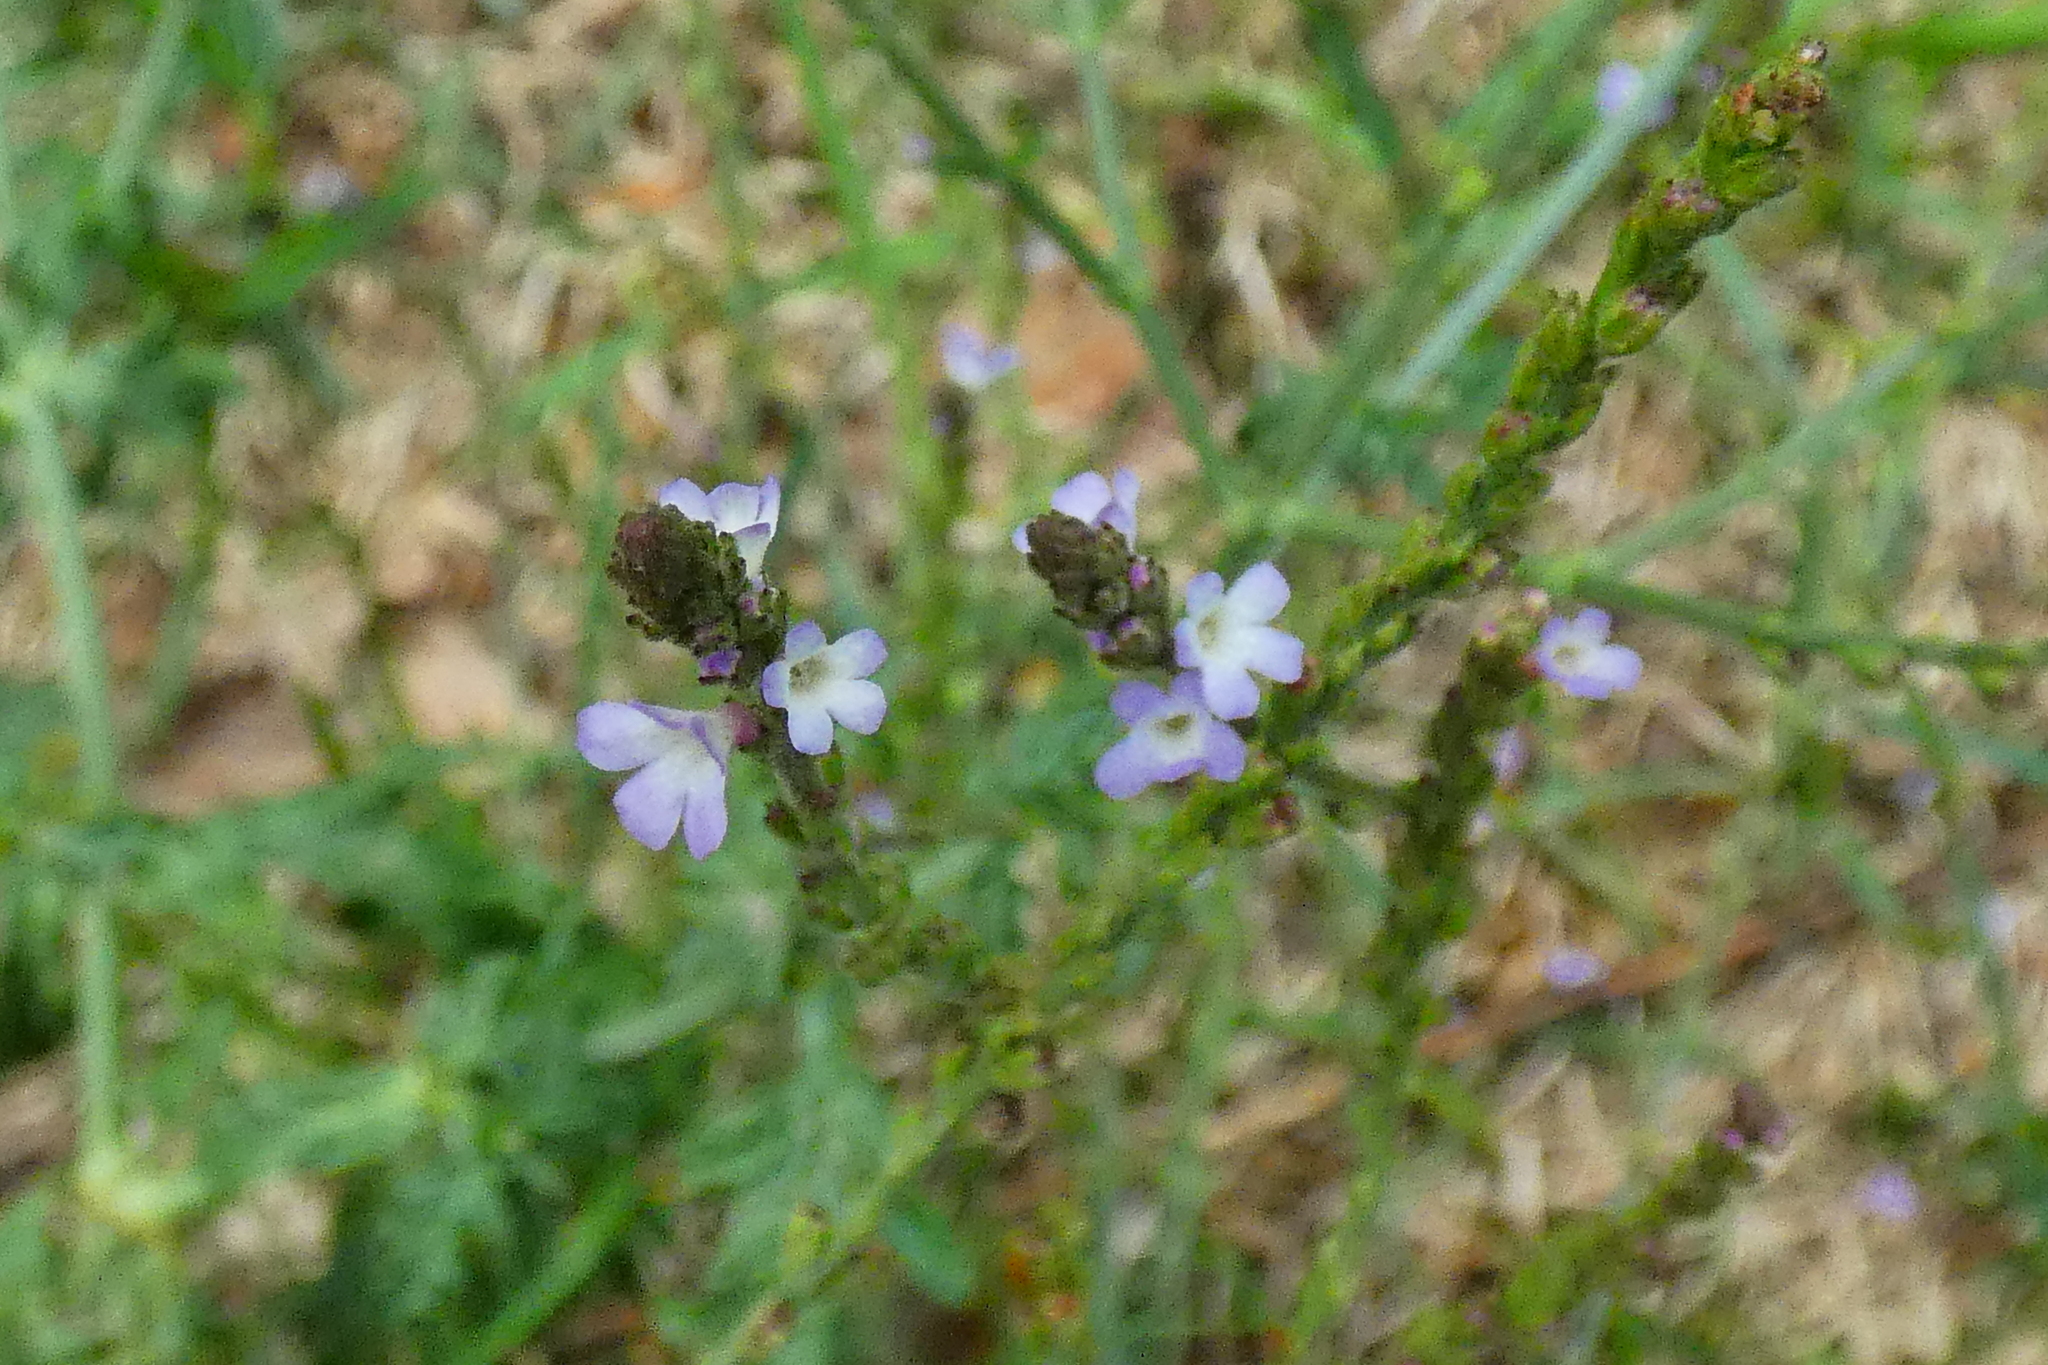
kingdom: Plantae
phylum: Tracheophyta
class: Magnoliopsida
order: Lamiales
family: Verbenaceae
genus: Verbena
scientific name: Verbena officinalis
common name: Vervain
